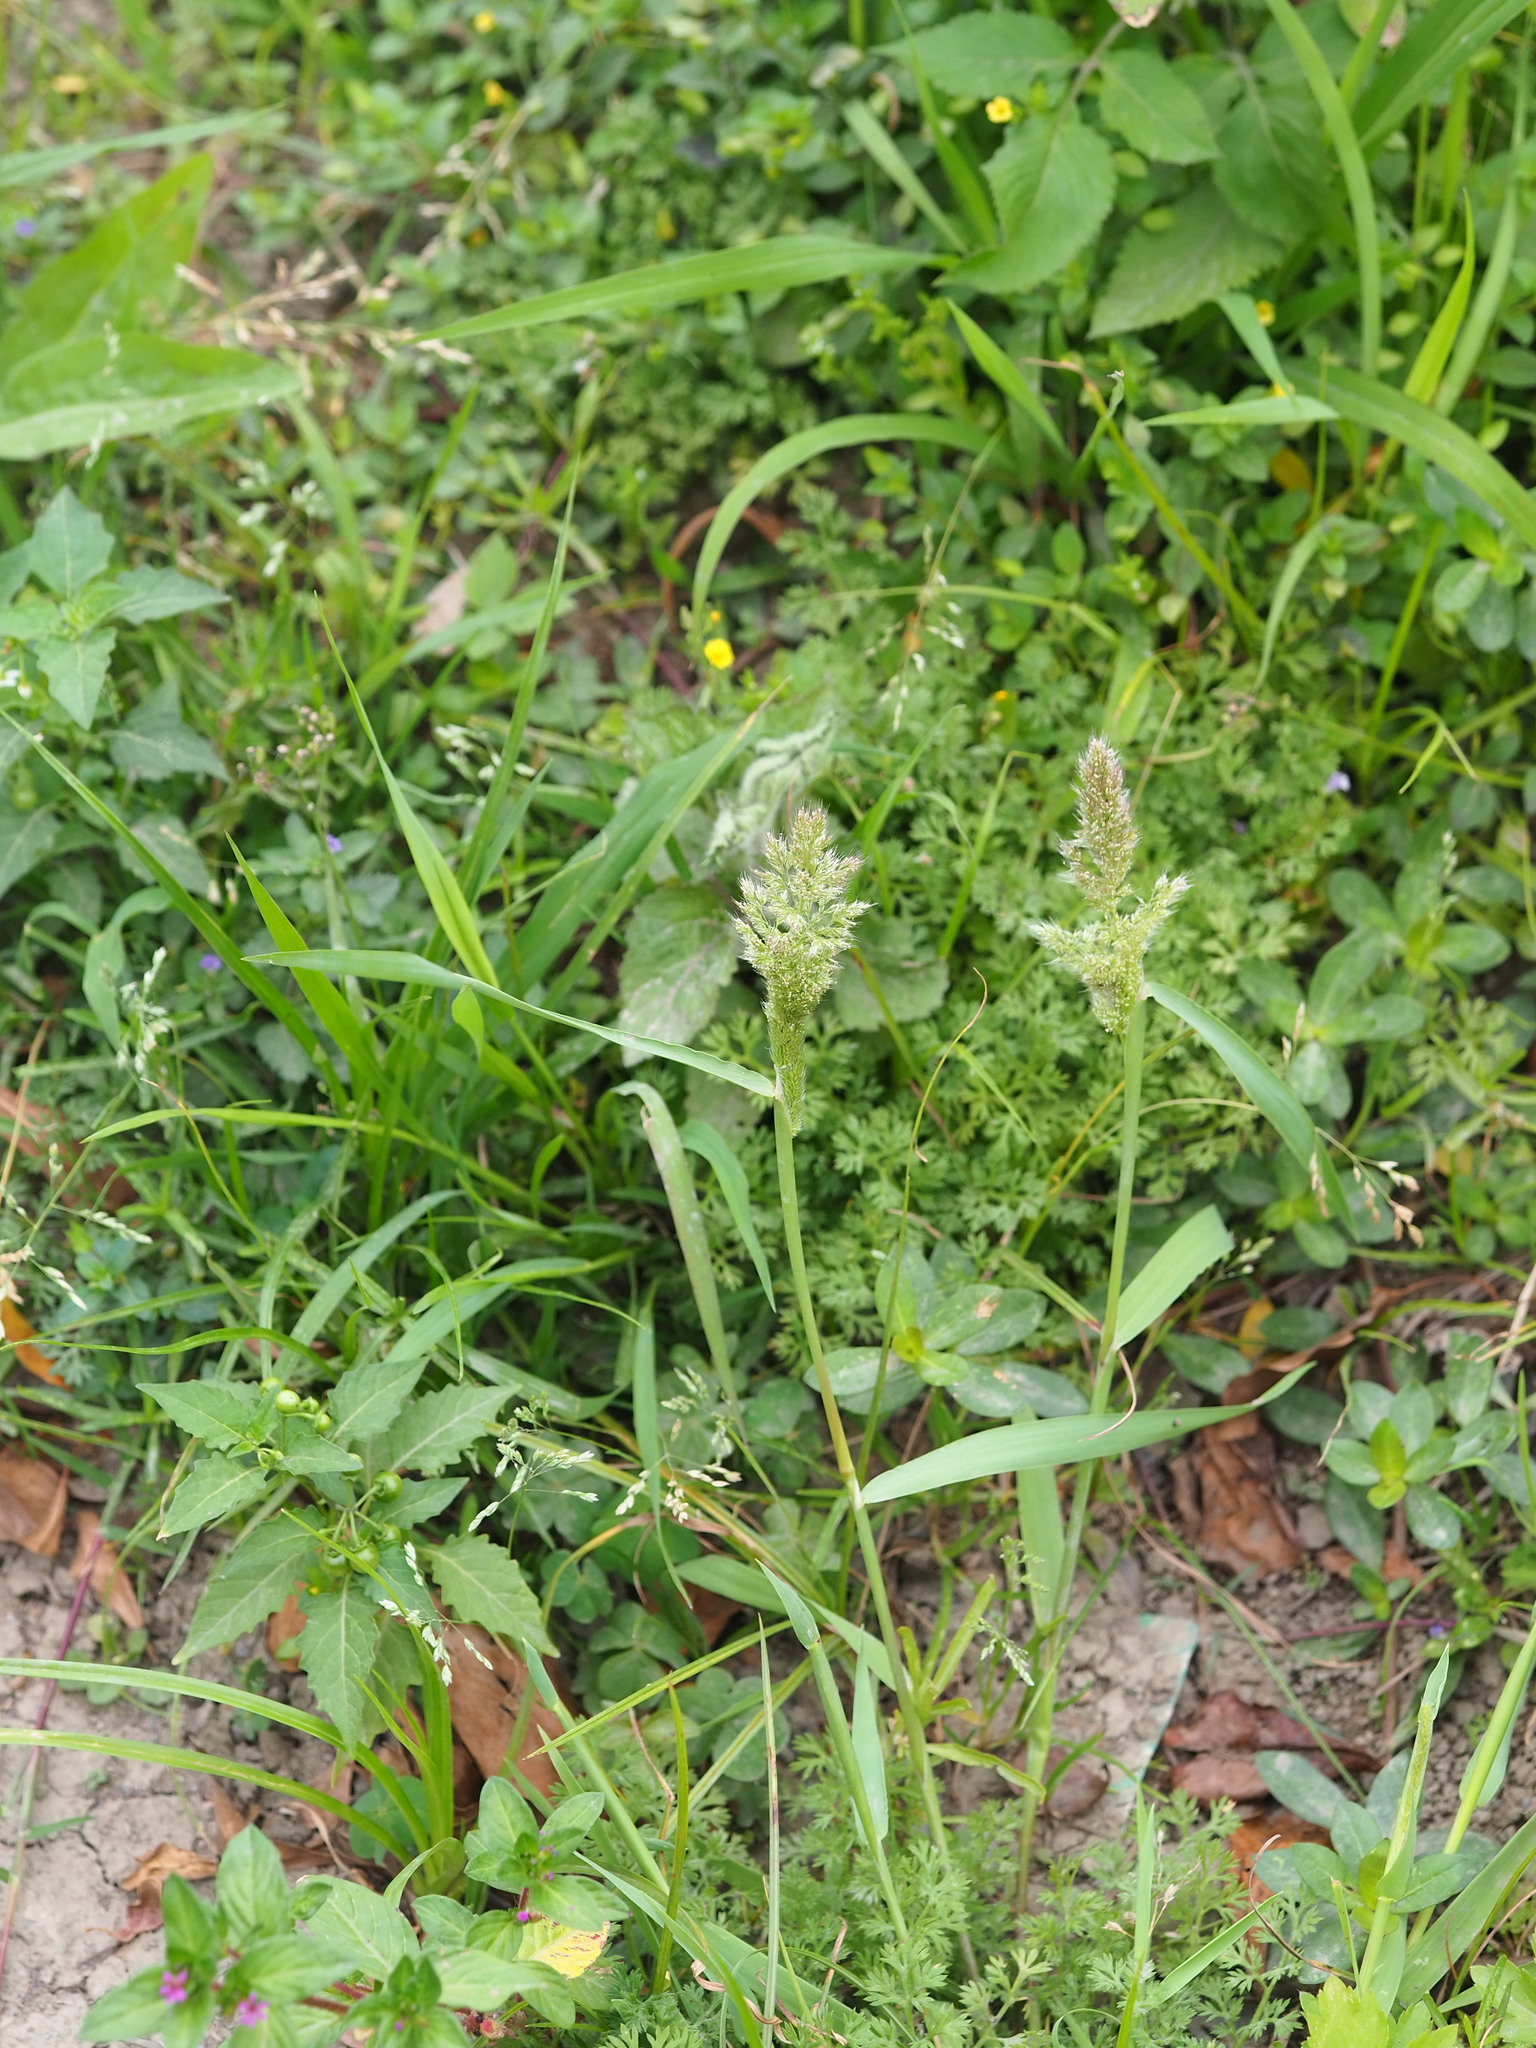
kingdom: Plantae
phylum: Tracheophyta
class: Liliopsida
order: Poales
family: Poaceae
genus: Polypogon
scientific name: Polypogon fugax
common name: Asia minor bluegrass
